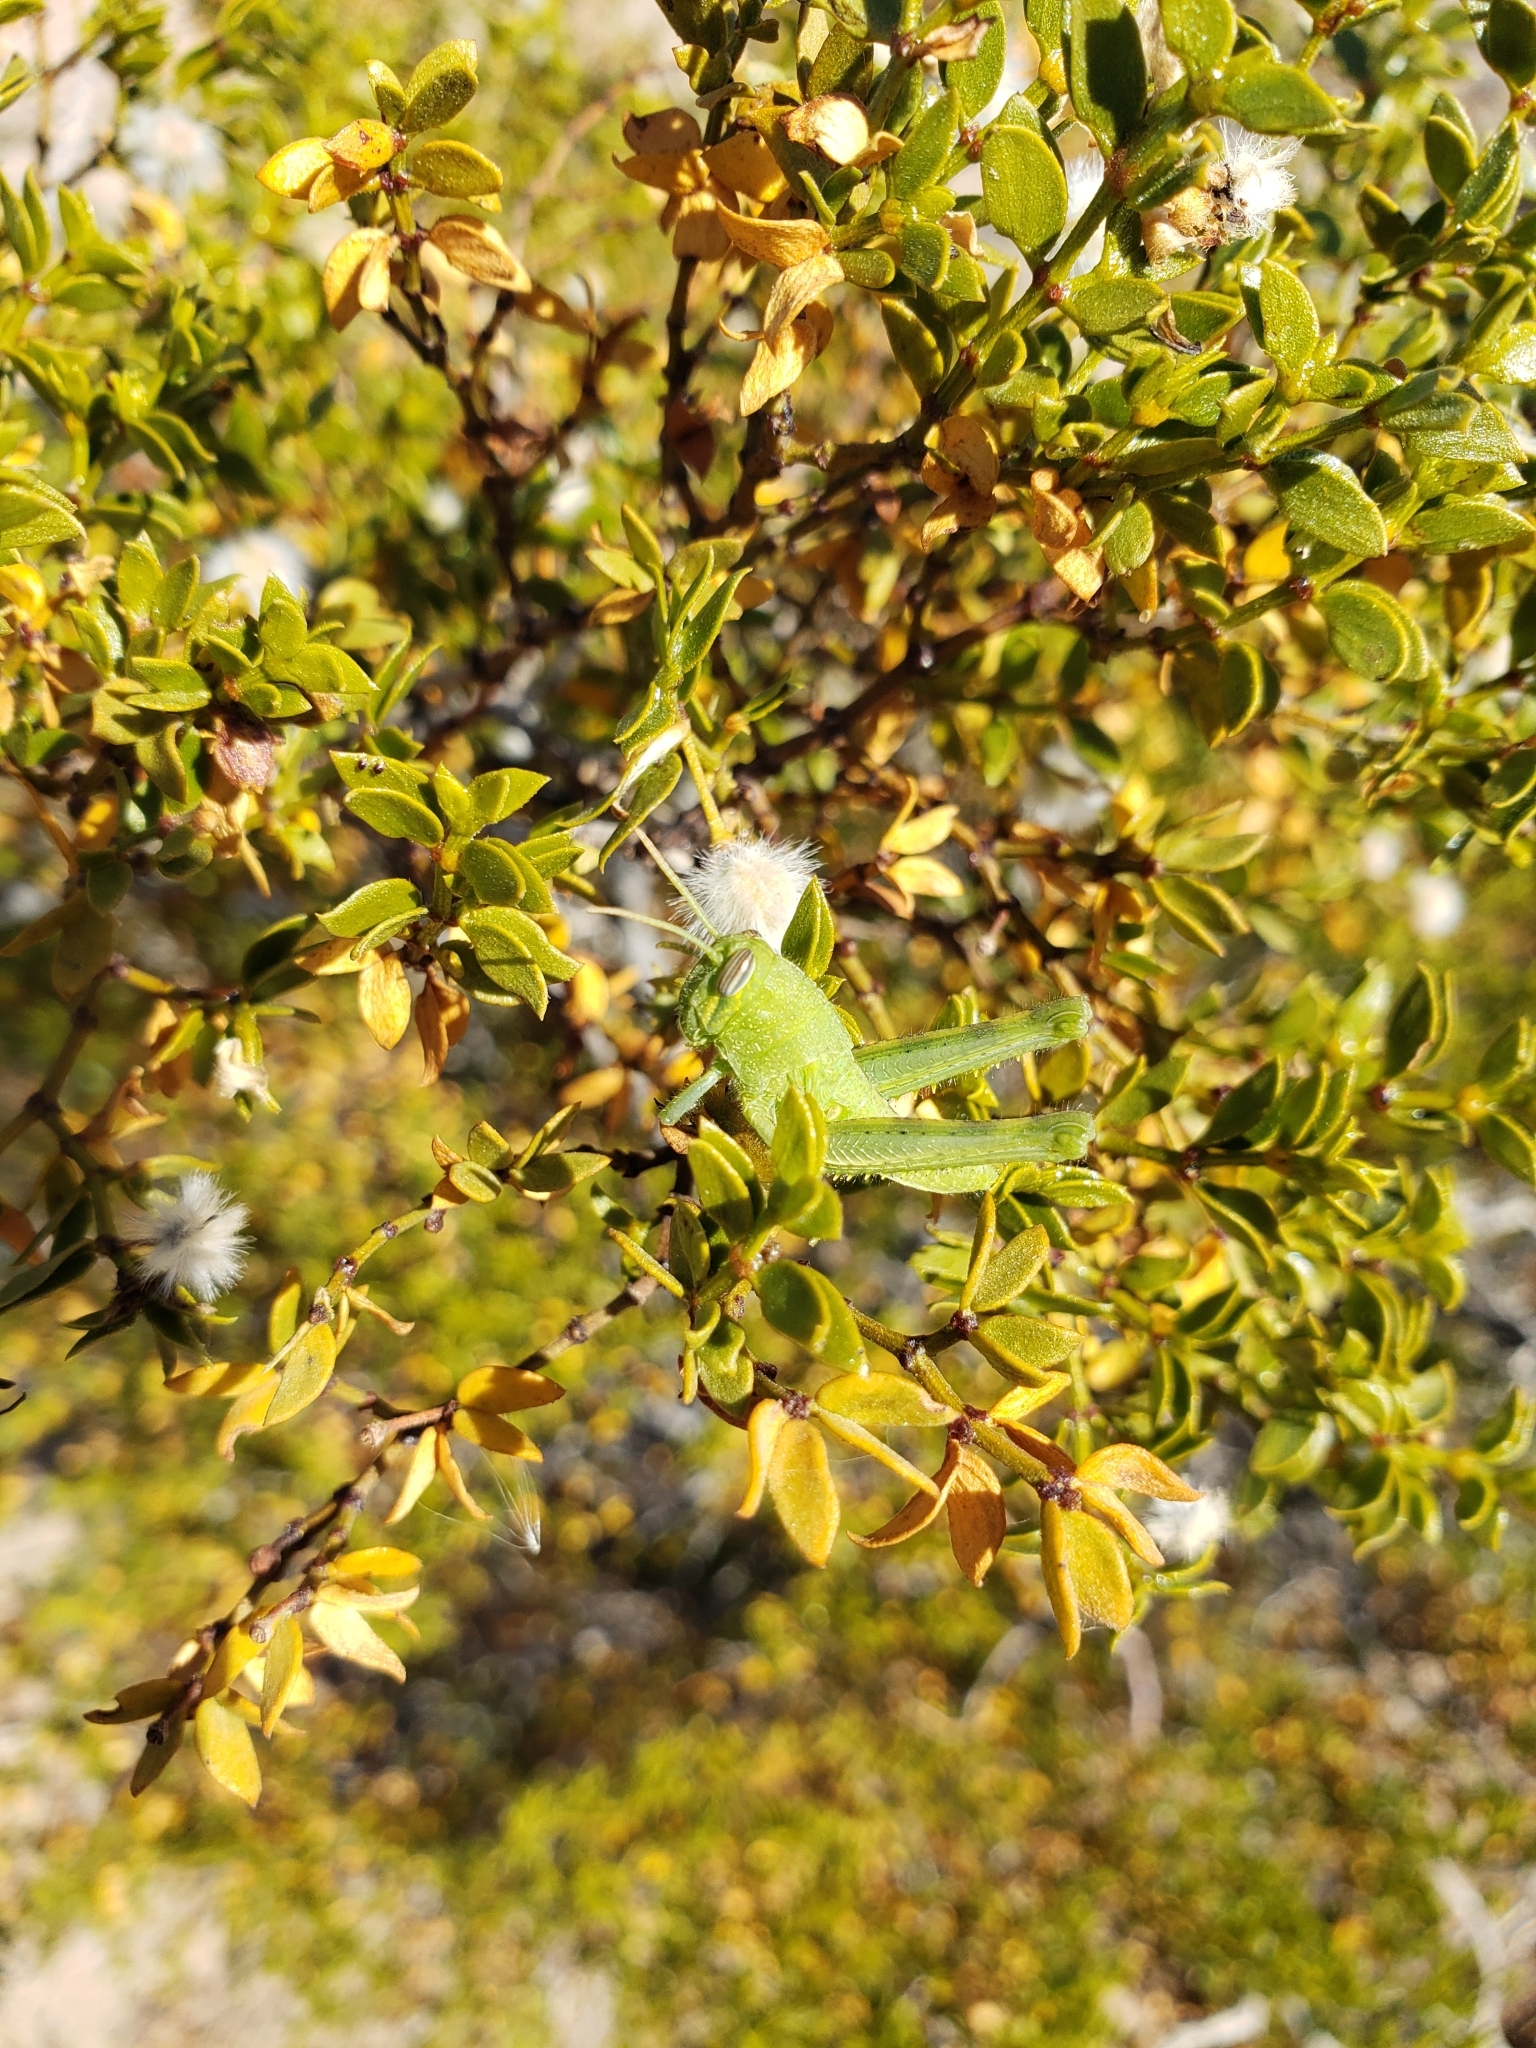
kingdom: Animalia
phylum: Arthropoda
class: Insecta
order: Orthoptera
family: Acrididae
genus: Schistocerca
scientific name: Schistocerca nitens
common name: Vagrant grasshopper
